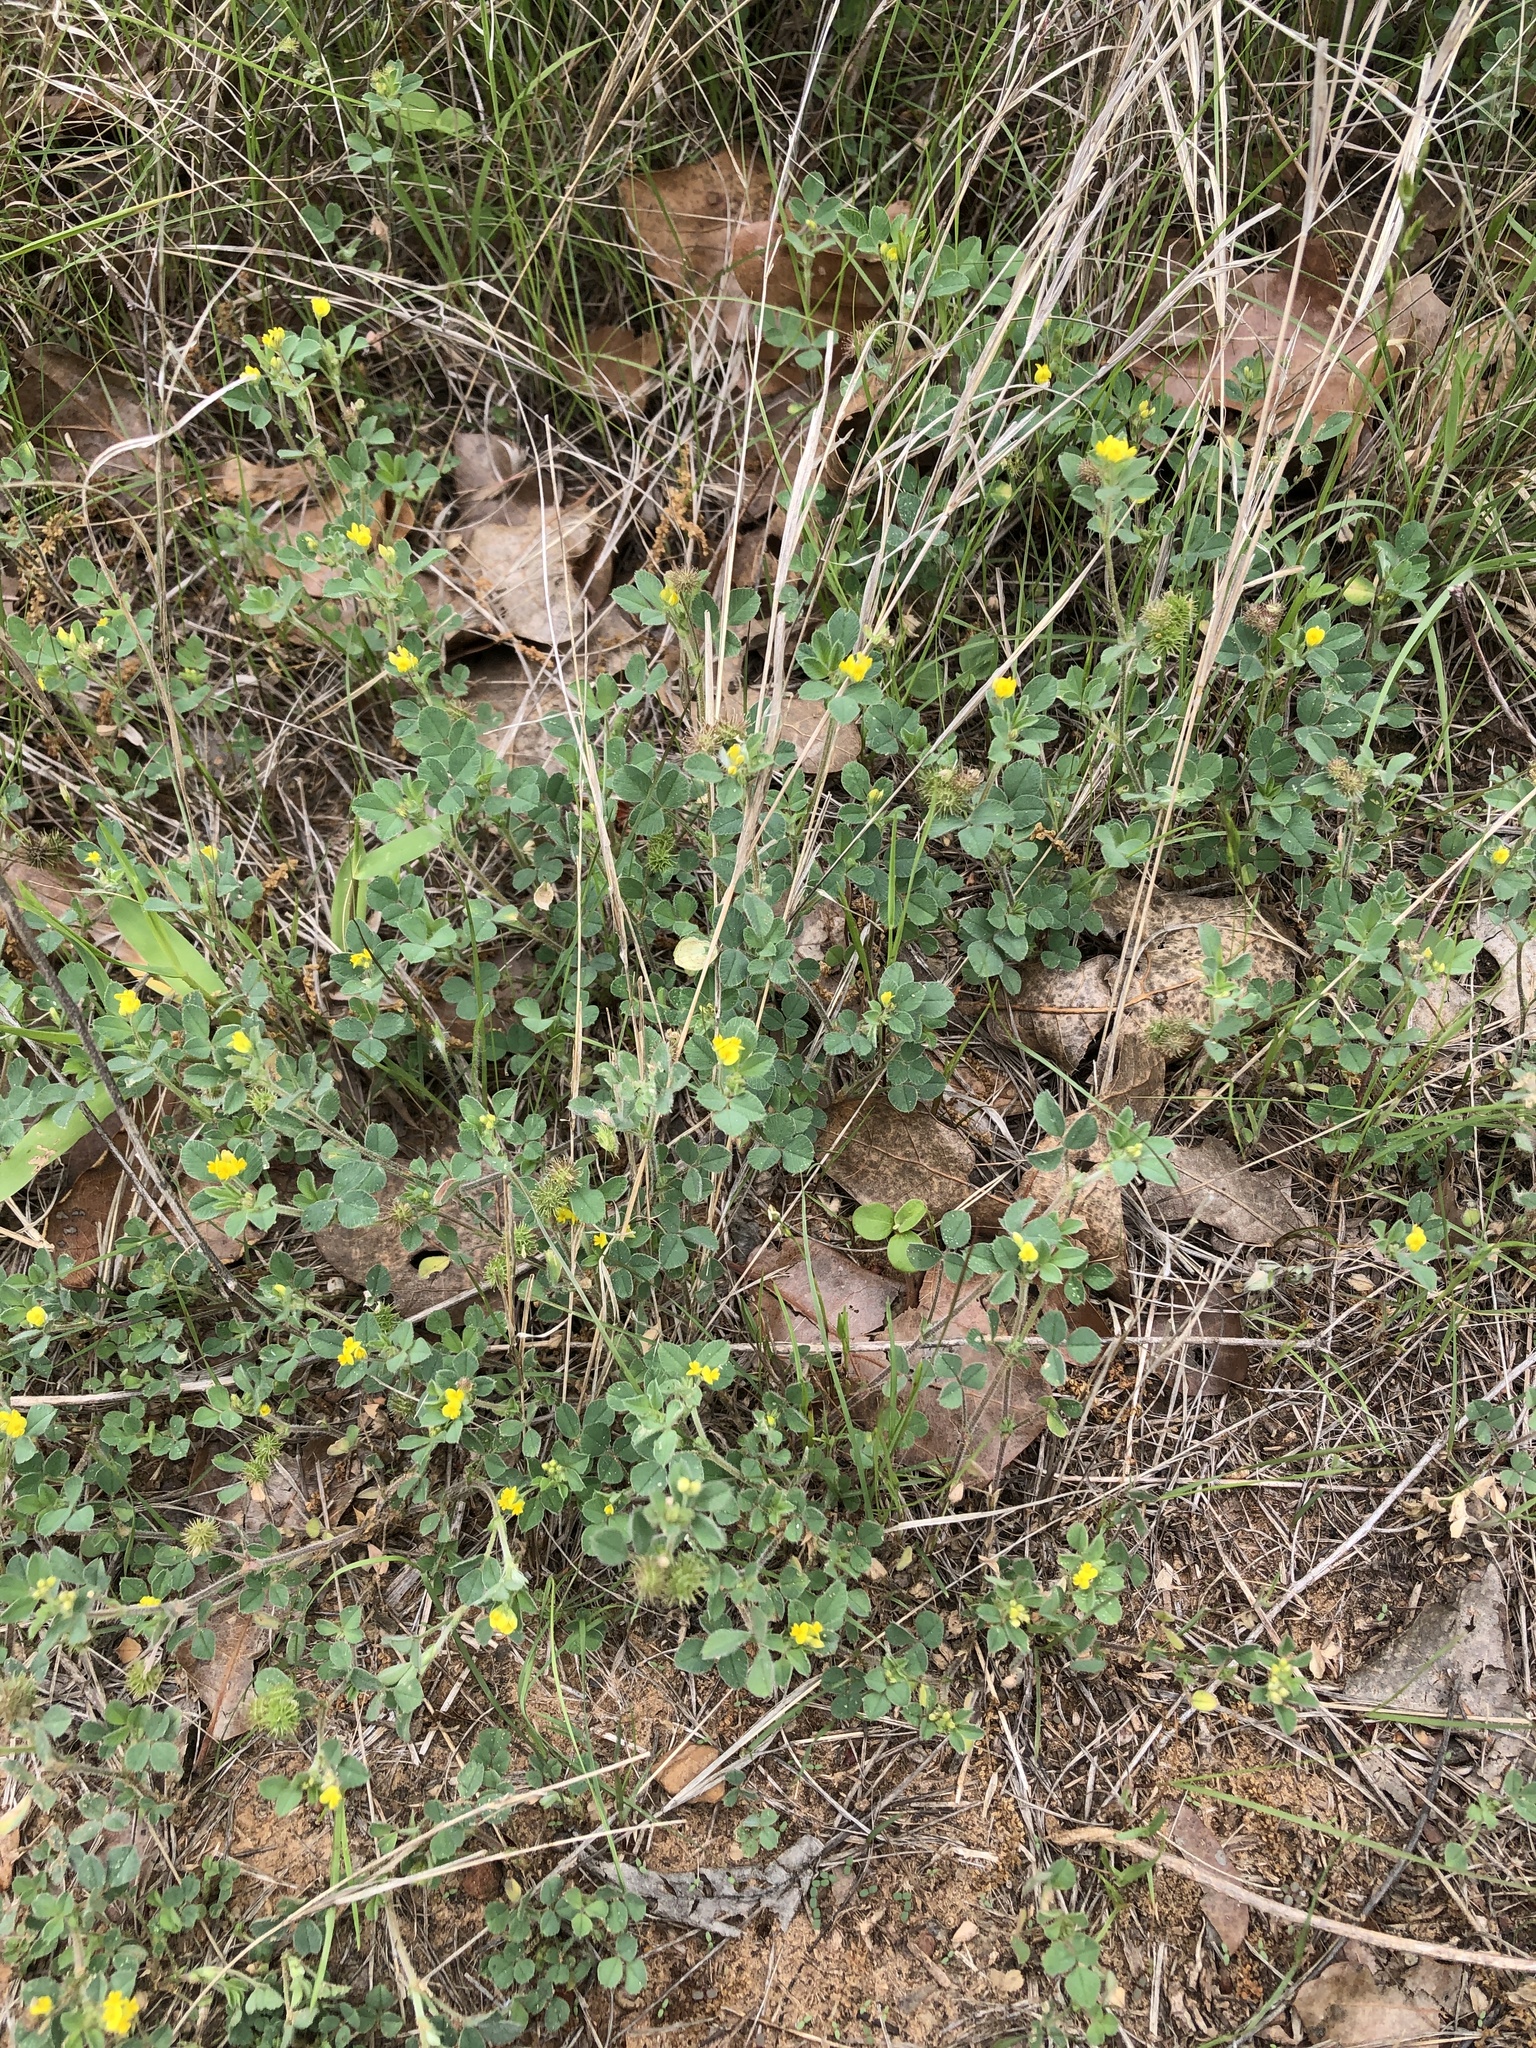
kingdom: Plantae
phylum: Tracheophyta
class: Magnoliopsida
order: Fabales
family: Fabaceae
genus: Medicago
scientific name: Medicago minima
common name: Little bur-clover
